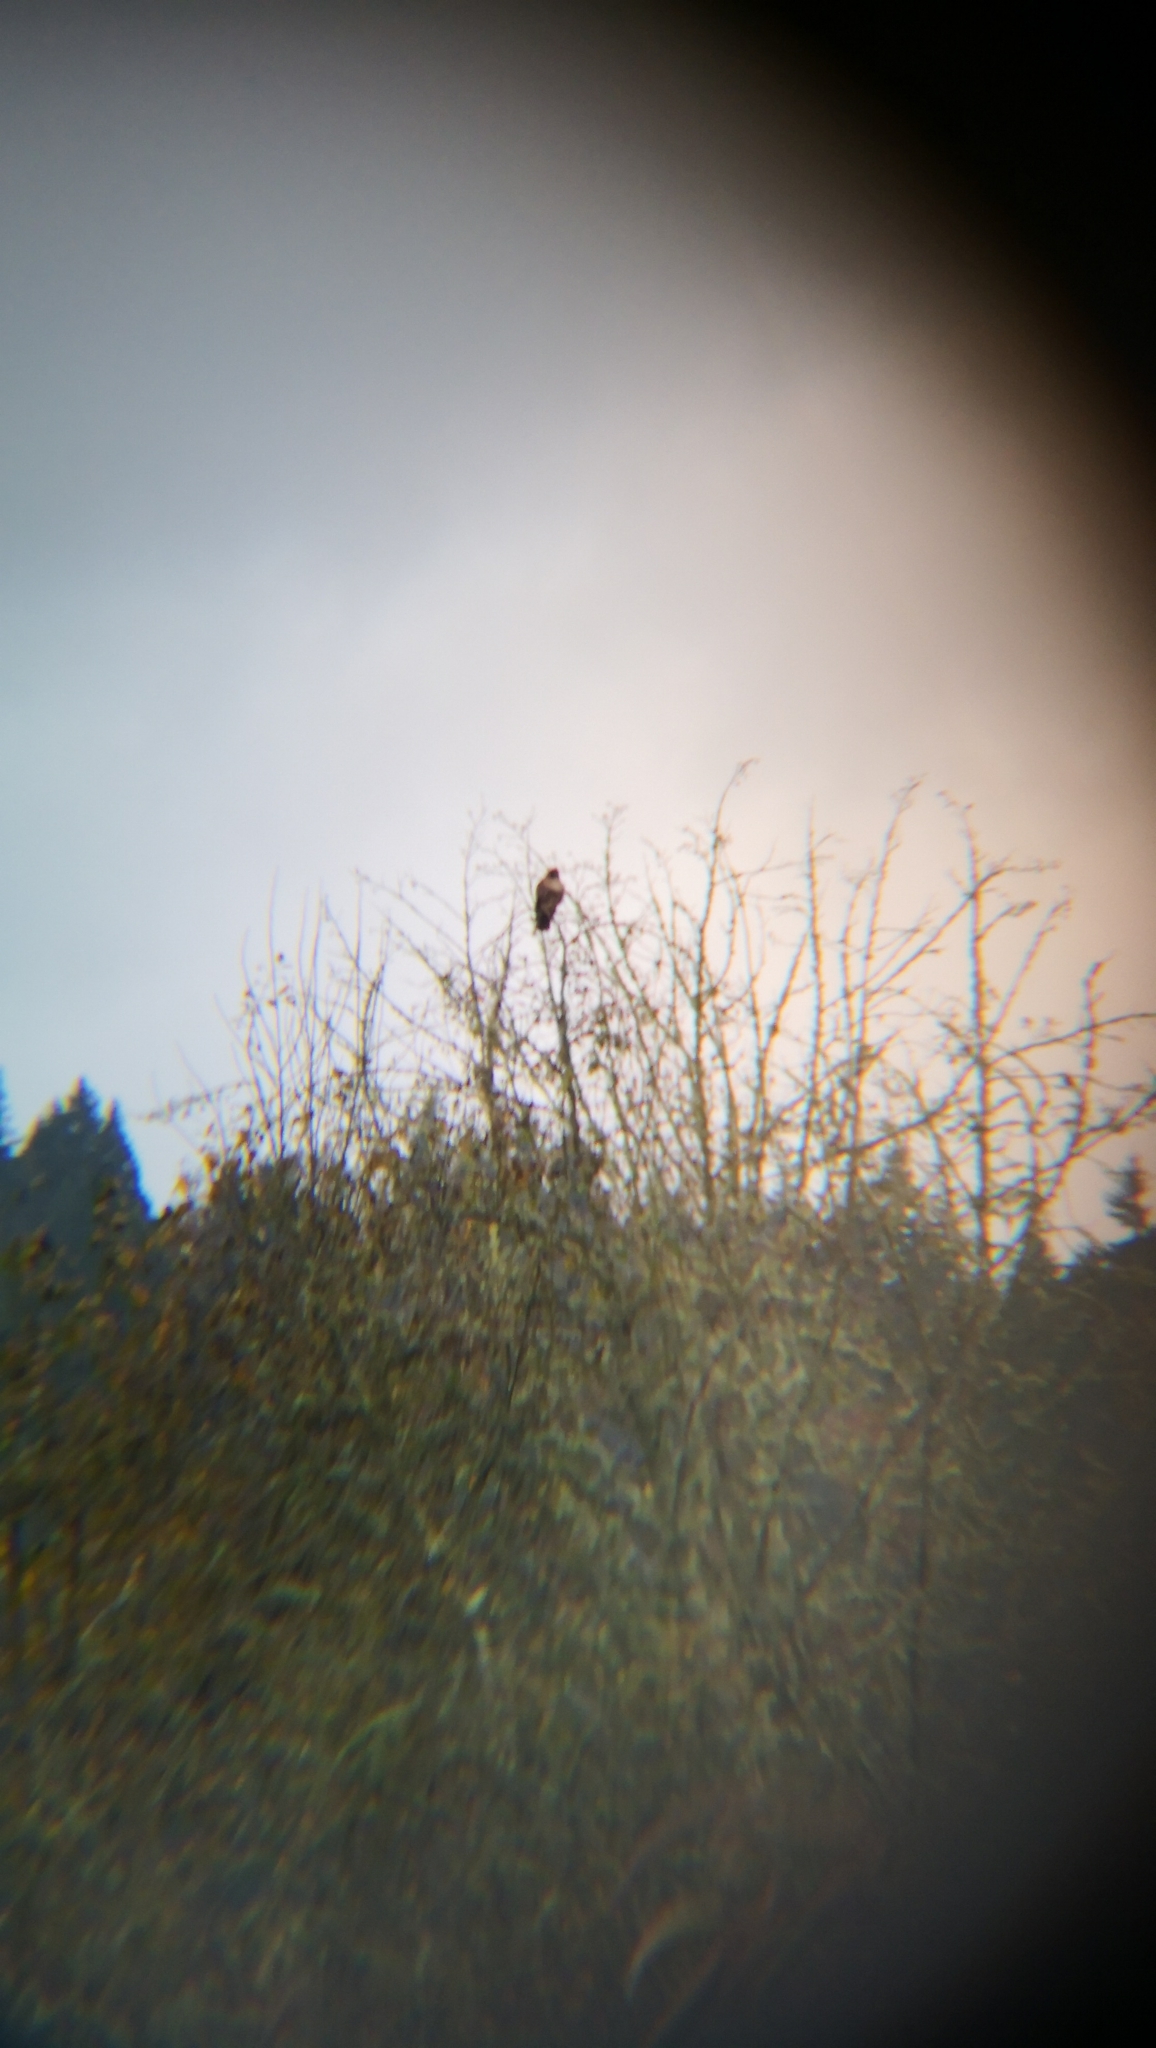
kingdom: Animalia
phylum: Chordata
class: Aves
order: Accipitriformes
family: Accipitridae
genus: Buteo
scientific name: Buteo jamaicensis
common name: Red-tailed hawk
